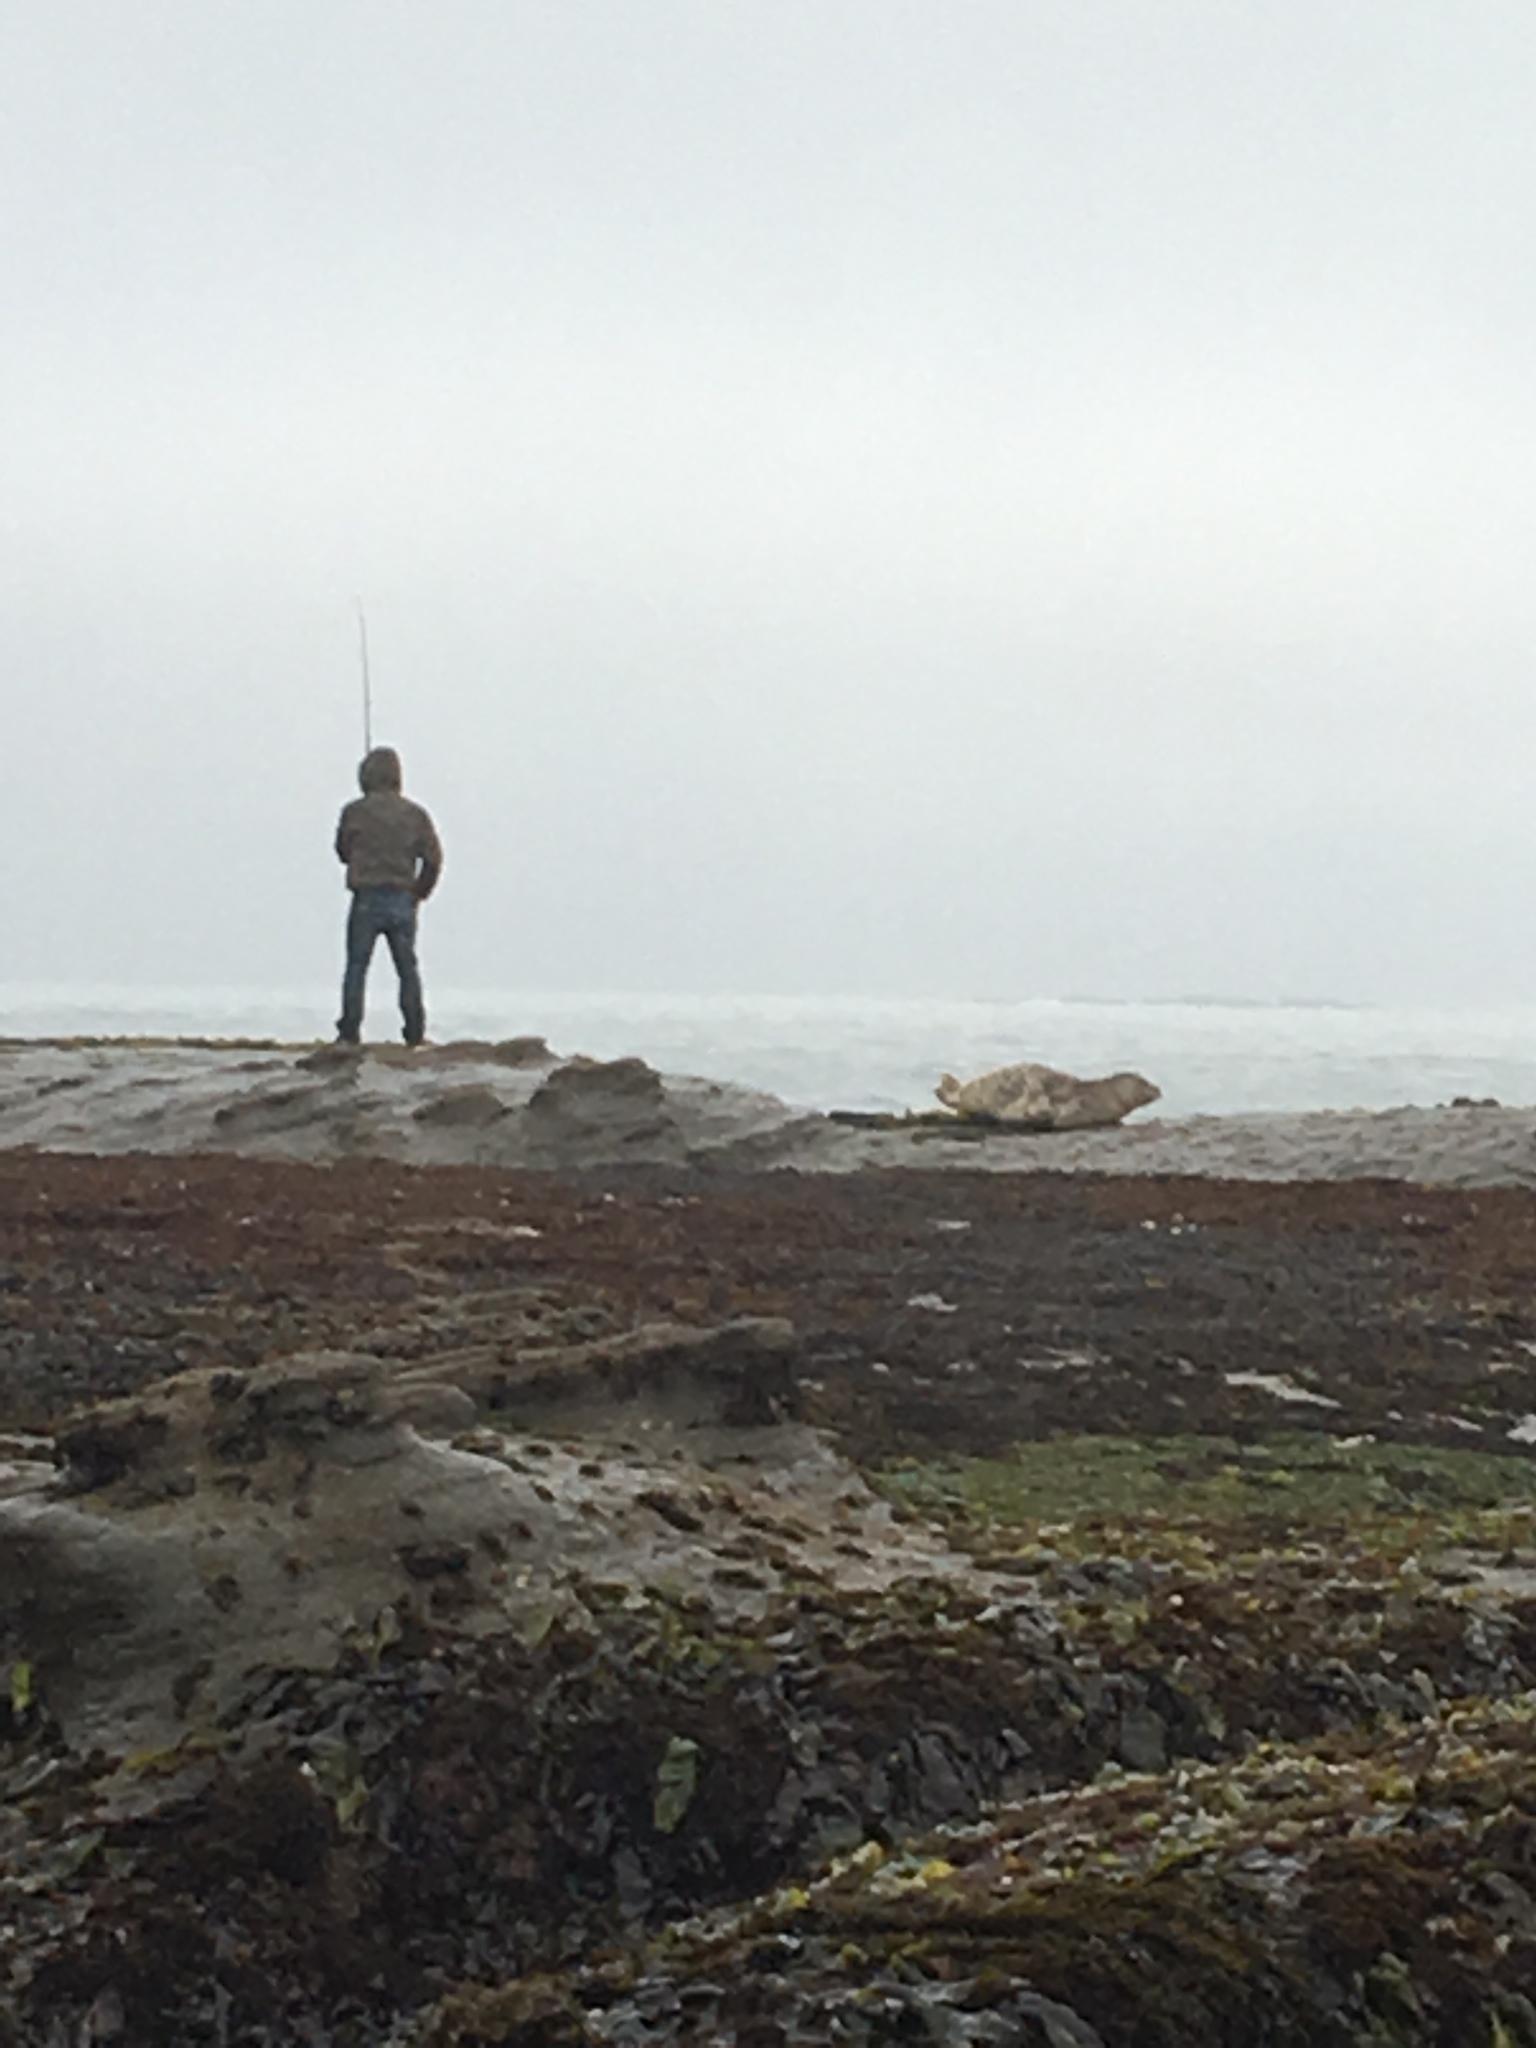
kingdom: Animalia
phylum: Chordata
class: Mammalia
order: Carnivora
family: Phocidae
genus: Phoca
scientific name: Phoca vitulina
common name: Harbor seal
